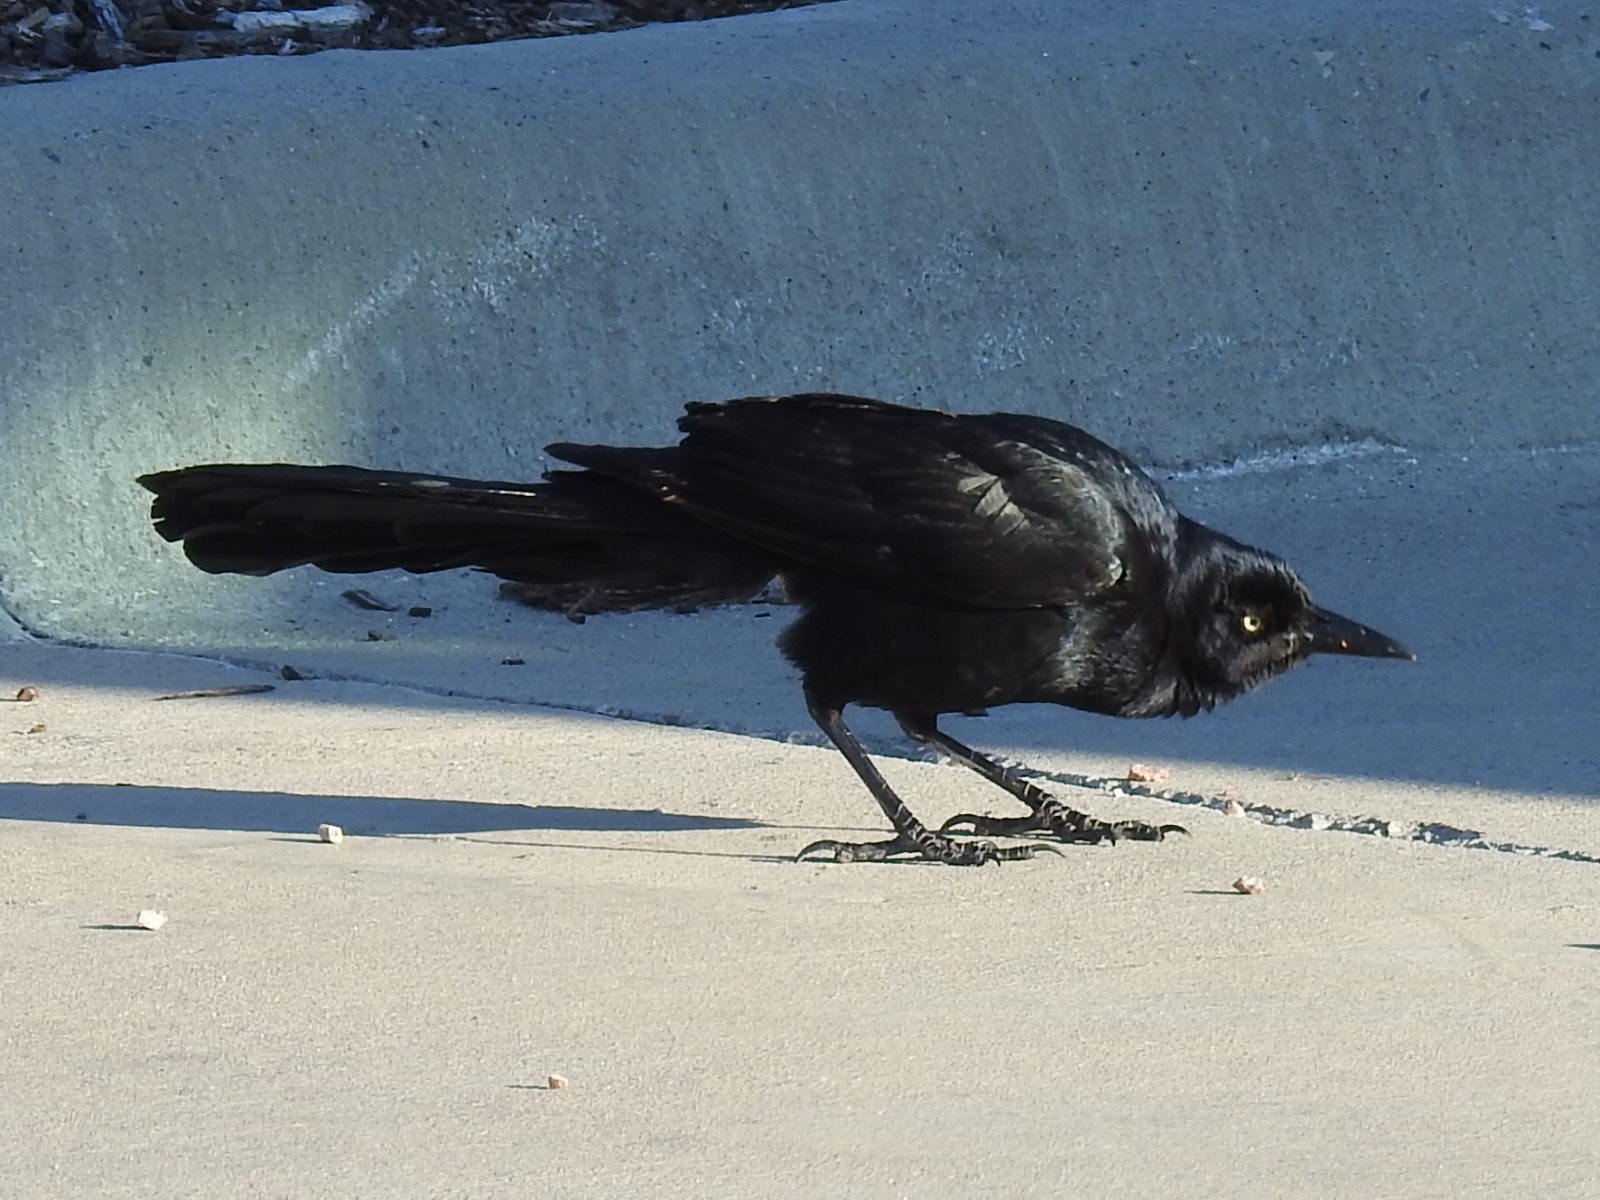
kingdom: Animalia
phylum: Chordata
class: Aves
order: Passeriformes
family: Icteridae
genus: Quiscalus
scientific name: Quiscalus mexicanus
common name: Great-tailed grackle
